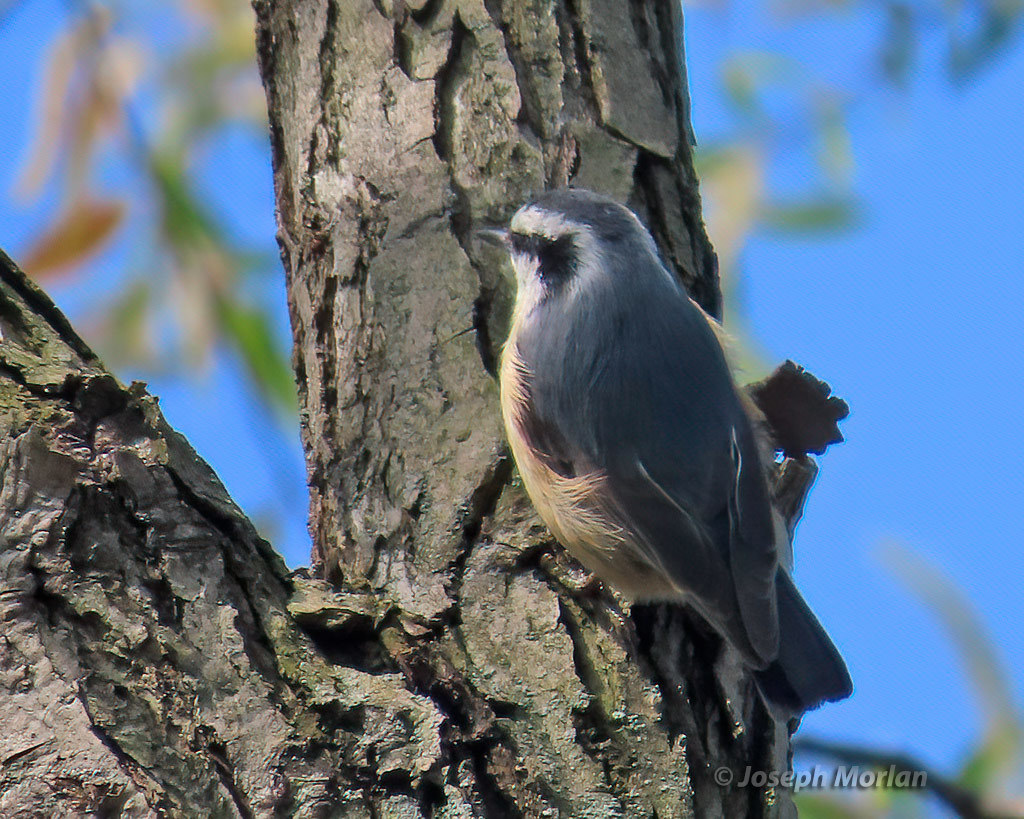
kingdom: Animalia
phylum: Chordata
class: Aves
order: Passeriformes
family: Sittidae
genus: Sitta
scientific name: Sitta canadensis
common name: Red-breasted nuthatch
